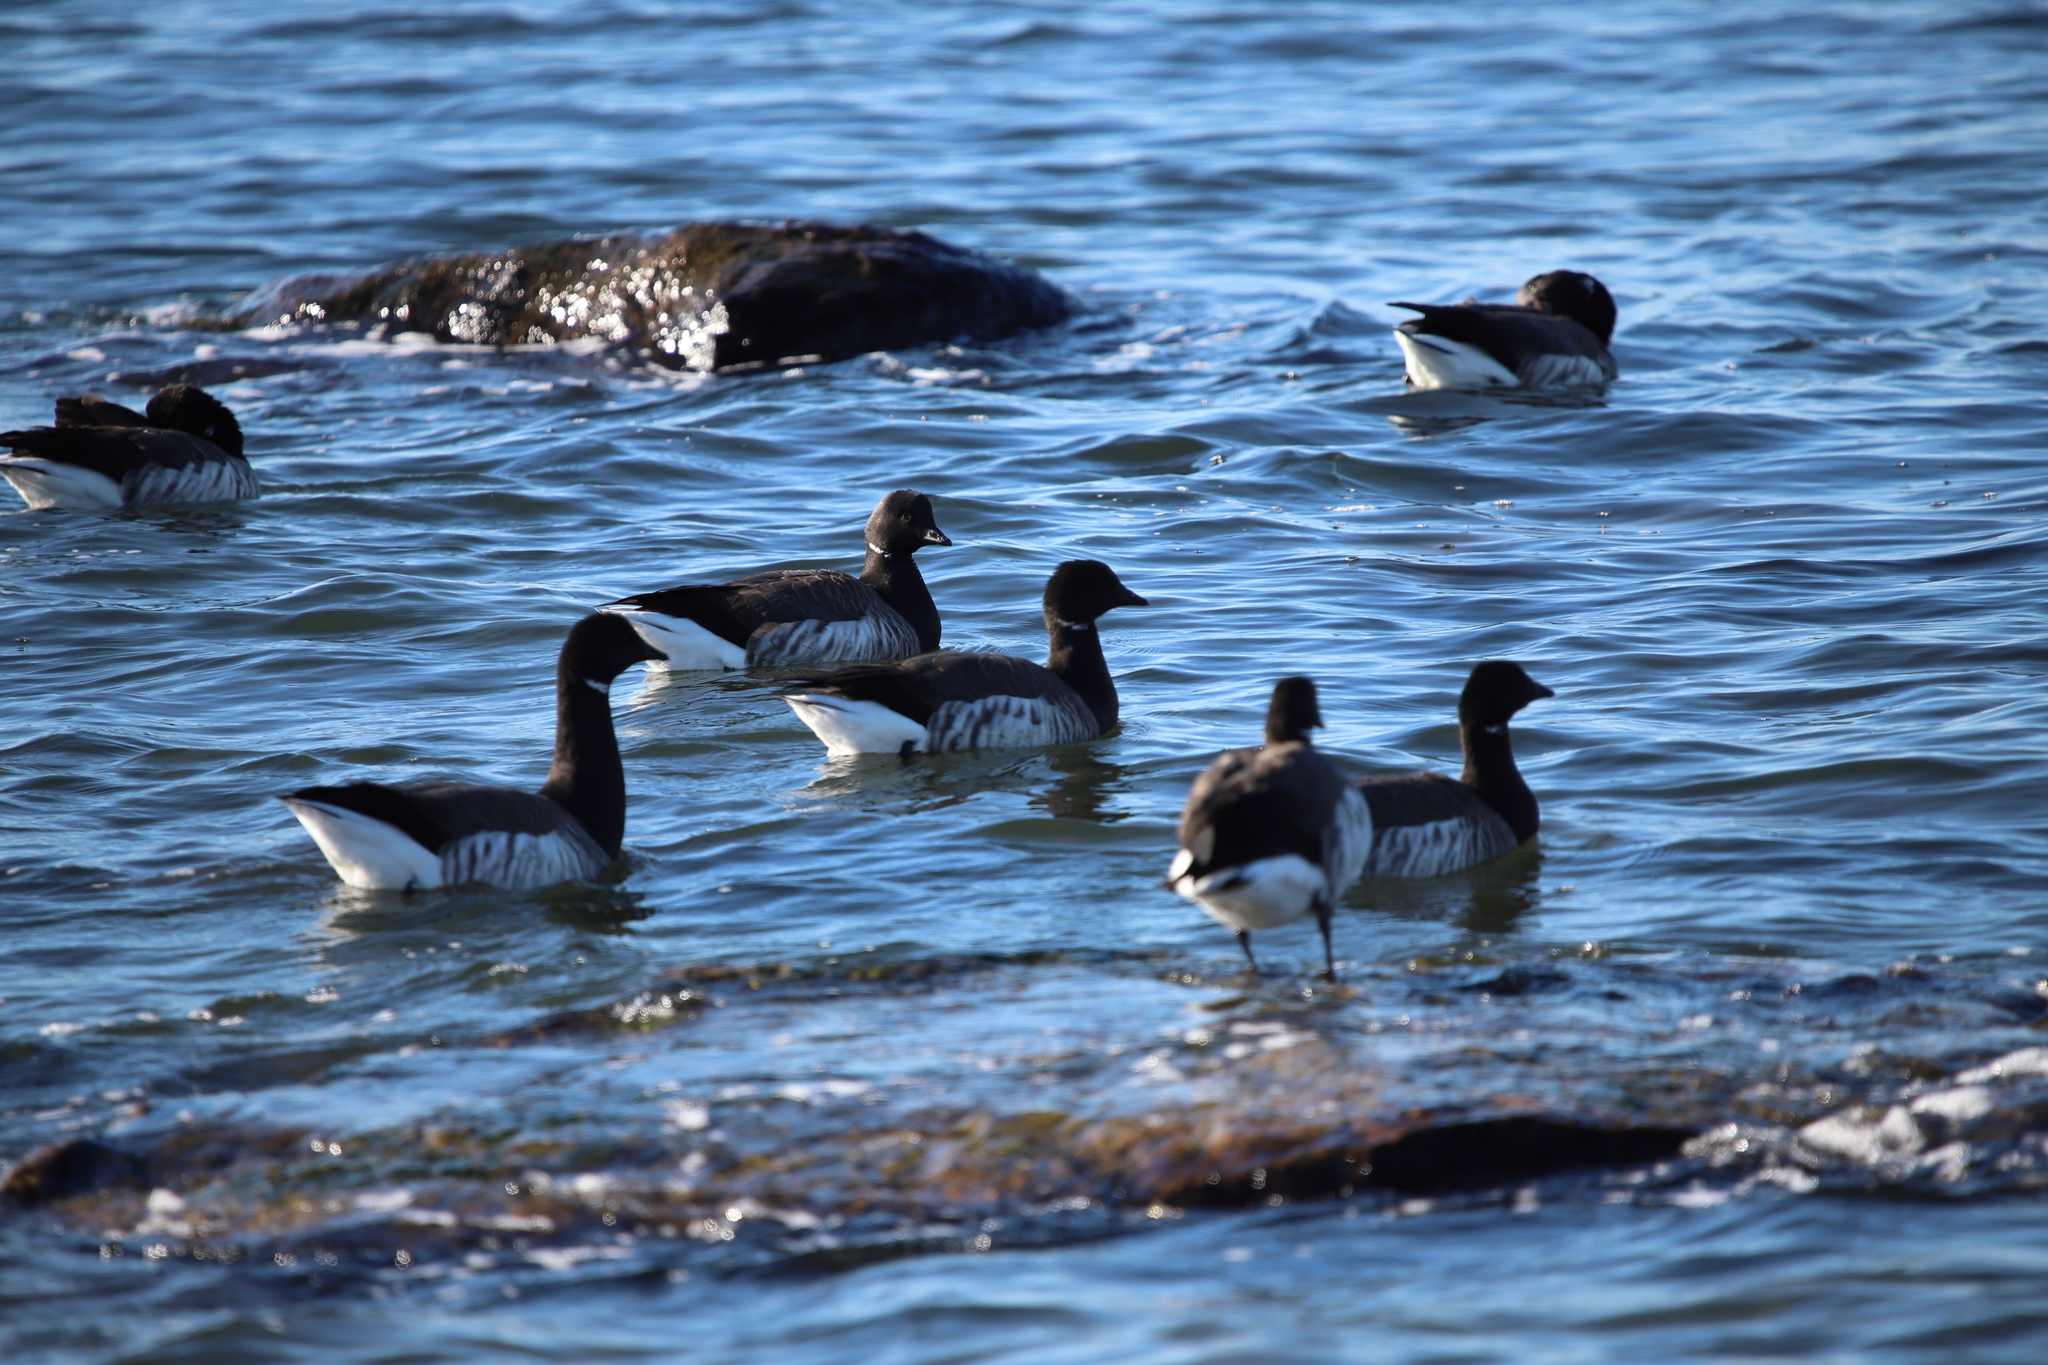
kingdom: Animalia
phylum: Chordata
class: Aves
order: Anseriformes
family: Anatidae
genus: Branta
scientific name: Branta bernicla
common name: Brant goose
